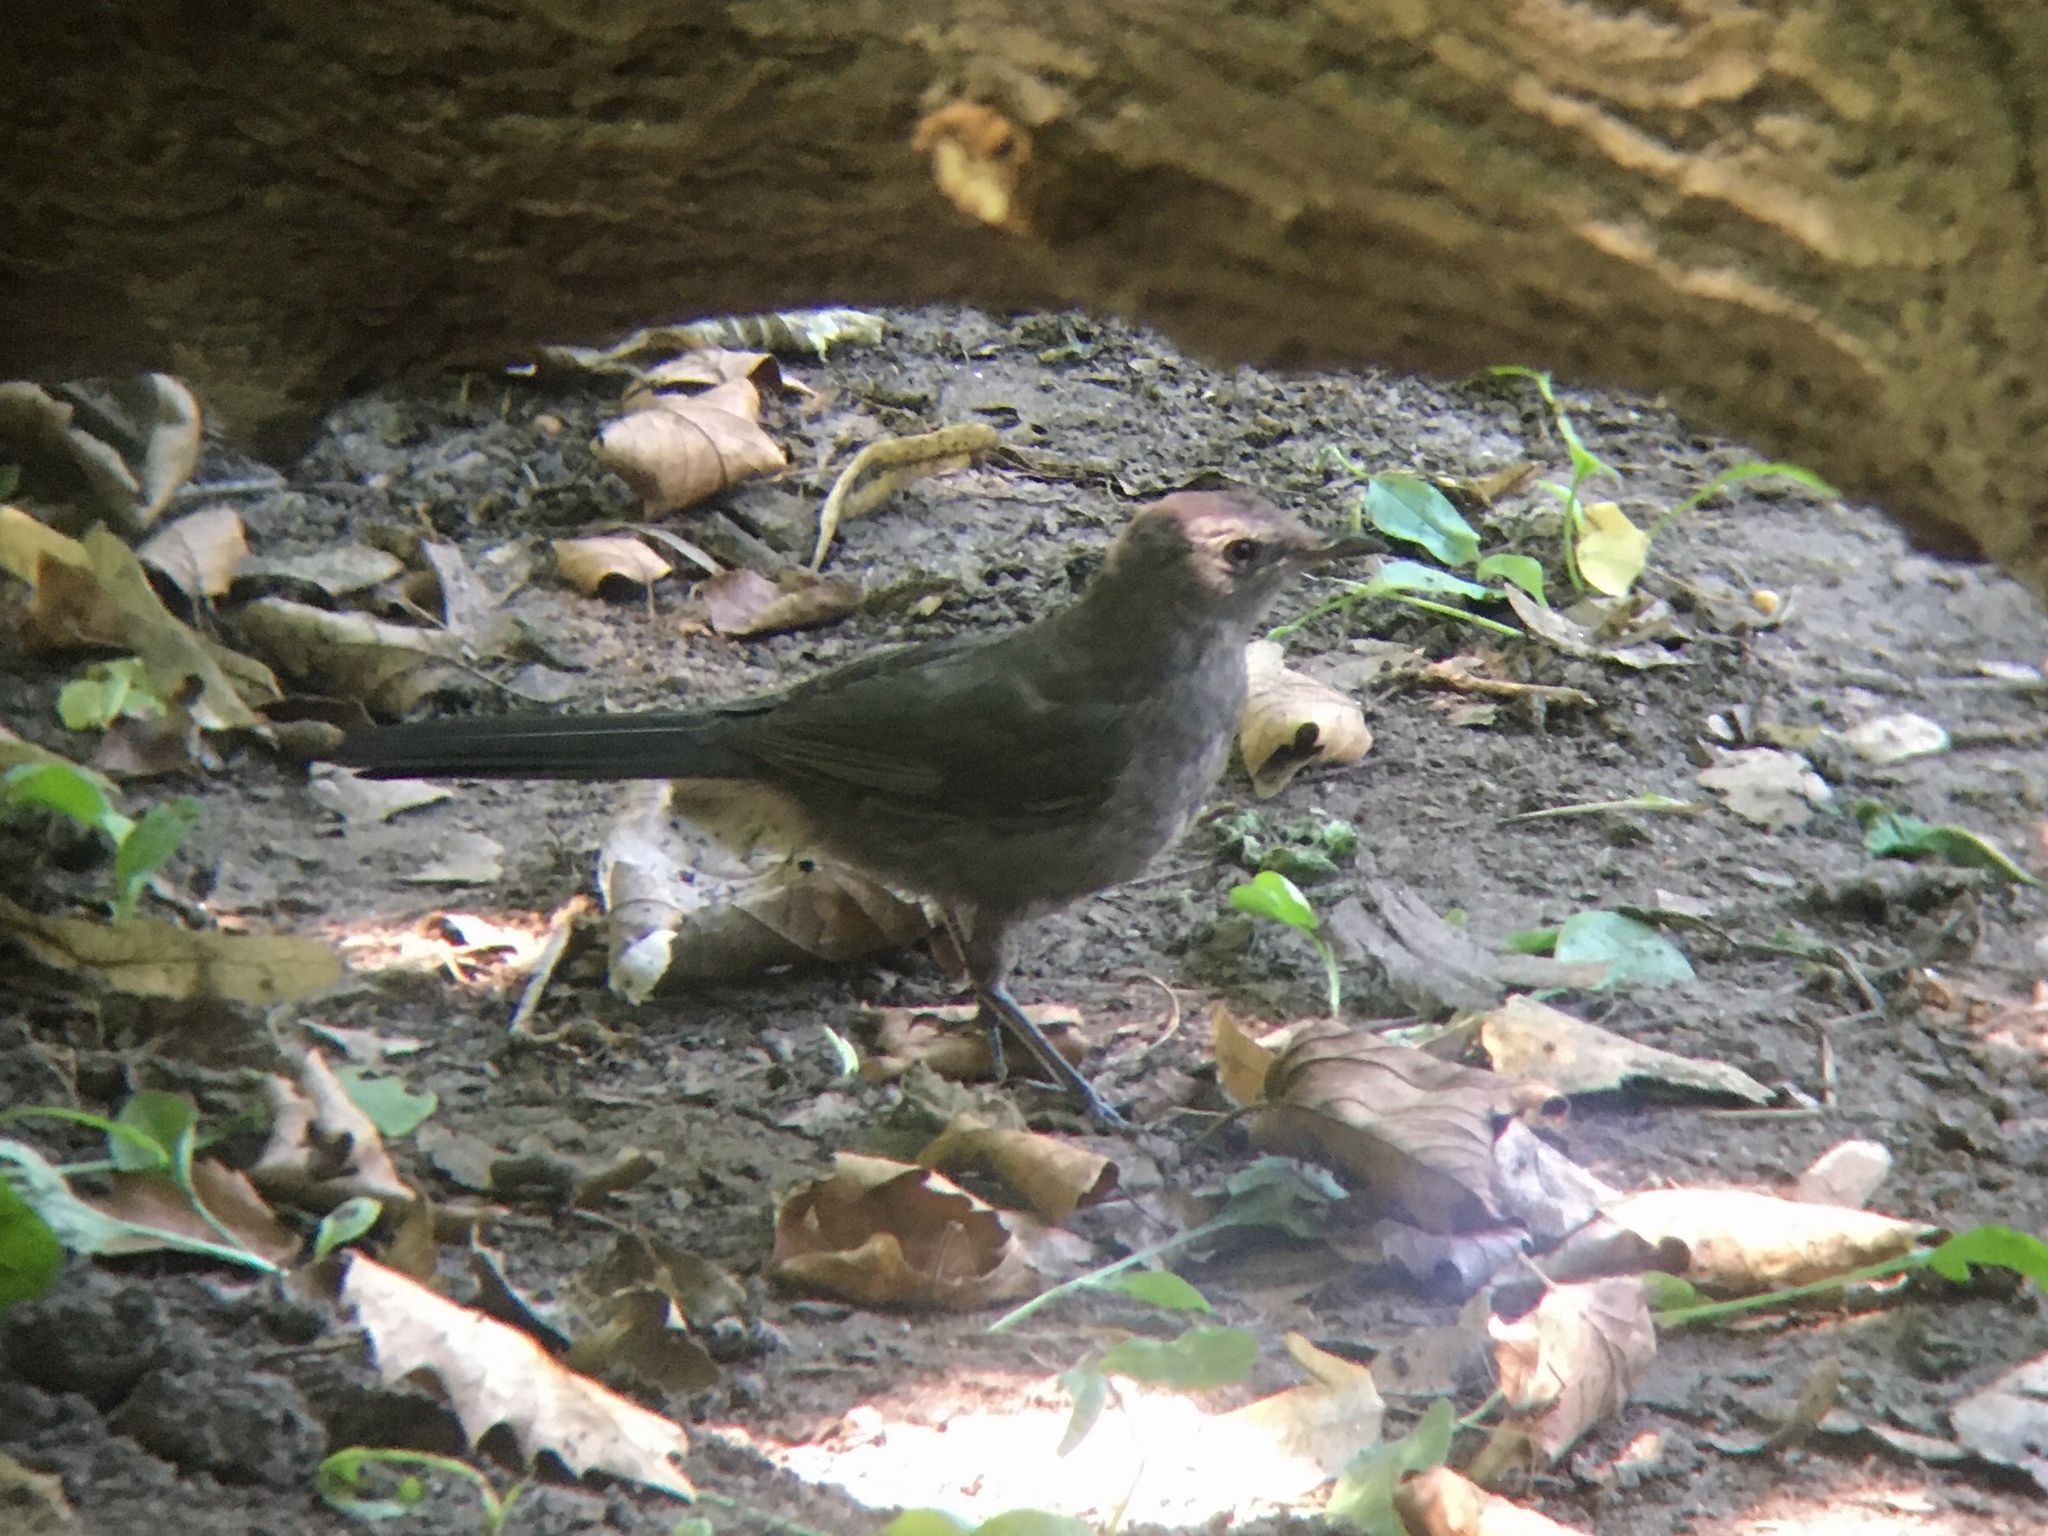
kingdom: Animalia
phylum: Chordata
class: Aves
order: Passeriformes
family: Mimidae
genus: Dumetella
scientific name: Dumetella carolinensis
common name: Gray catbird
